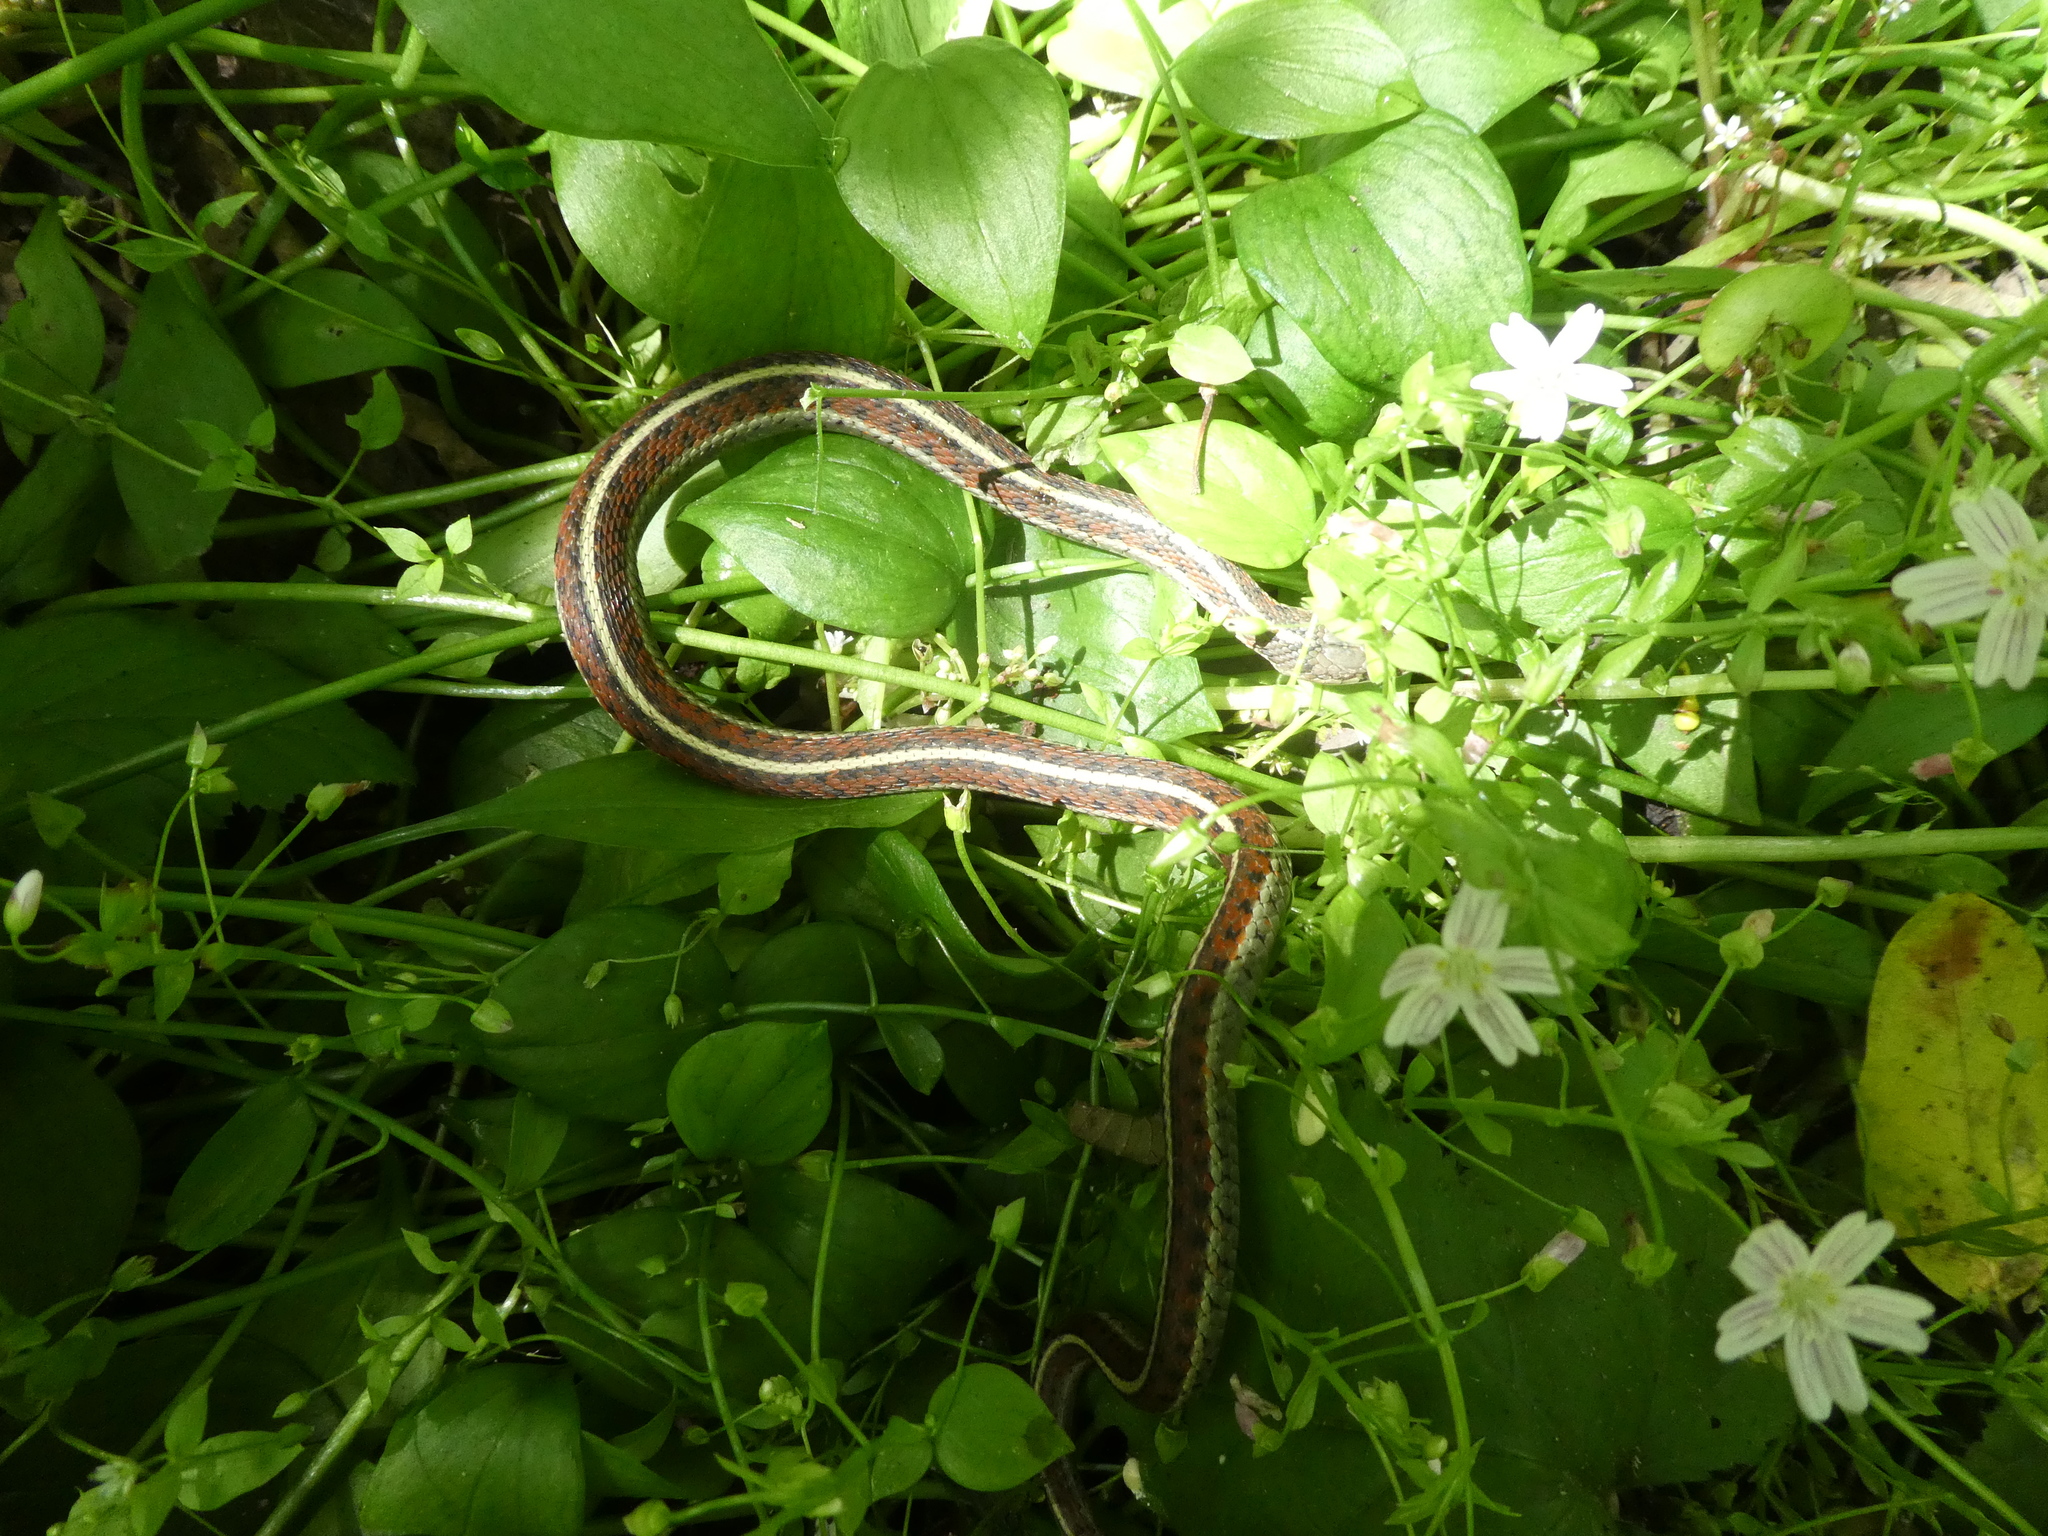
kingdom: Animalia
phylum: Chordata
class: Squamata
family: Colubridae
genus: Thamnophis
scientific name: Thamnophis elegans
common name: Western terrestrial garter snake
